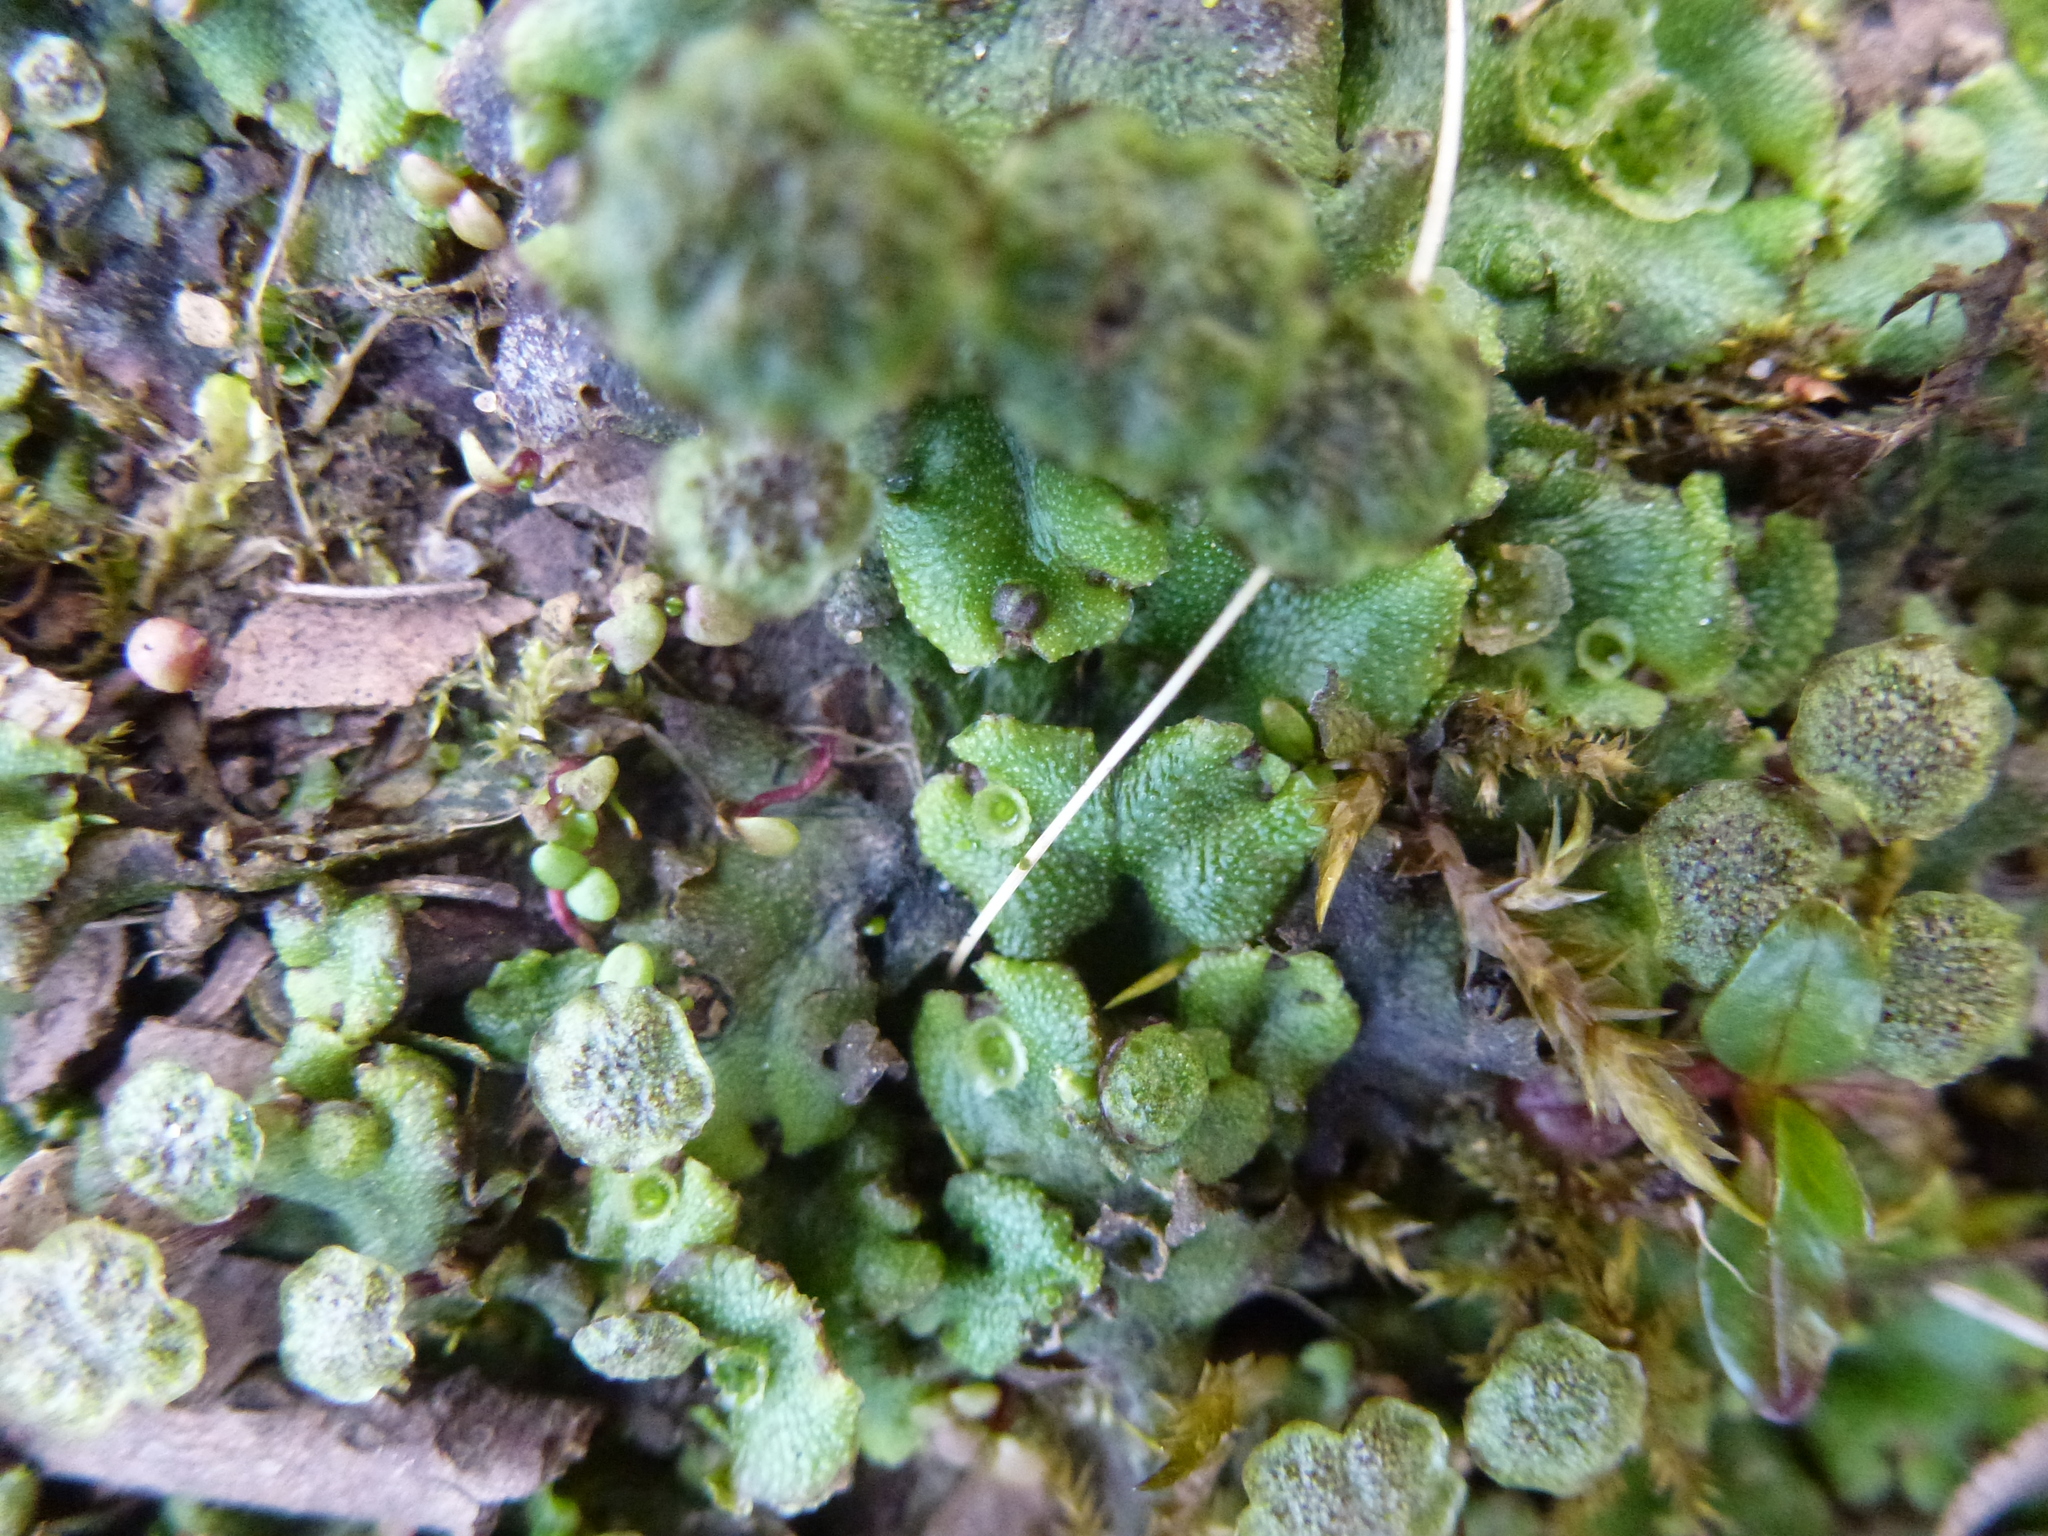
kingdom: Plantae
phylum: Marchantiophyta
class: Marchantiopsida
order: Marchantiales
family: Marchantiaceae
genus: Marchantia
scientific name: Marchantia polymorpha
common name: Common liverwort
